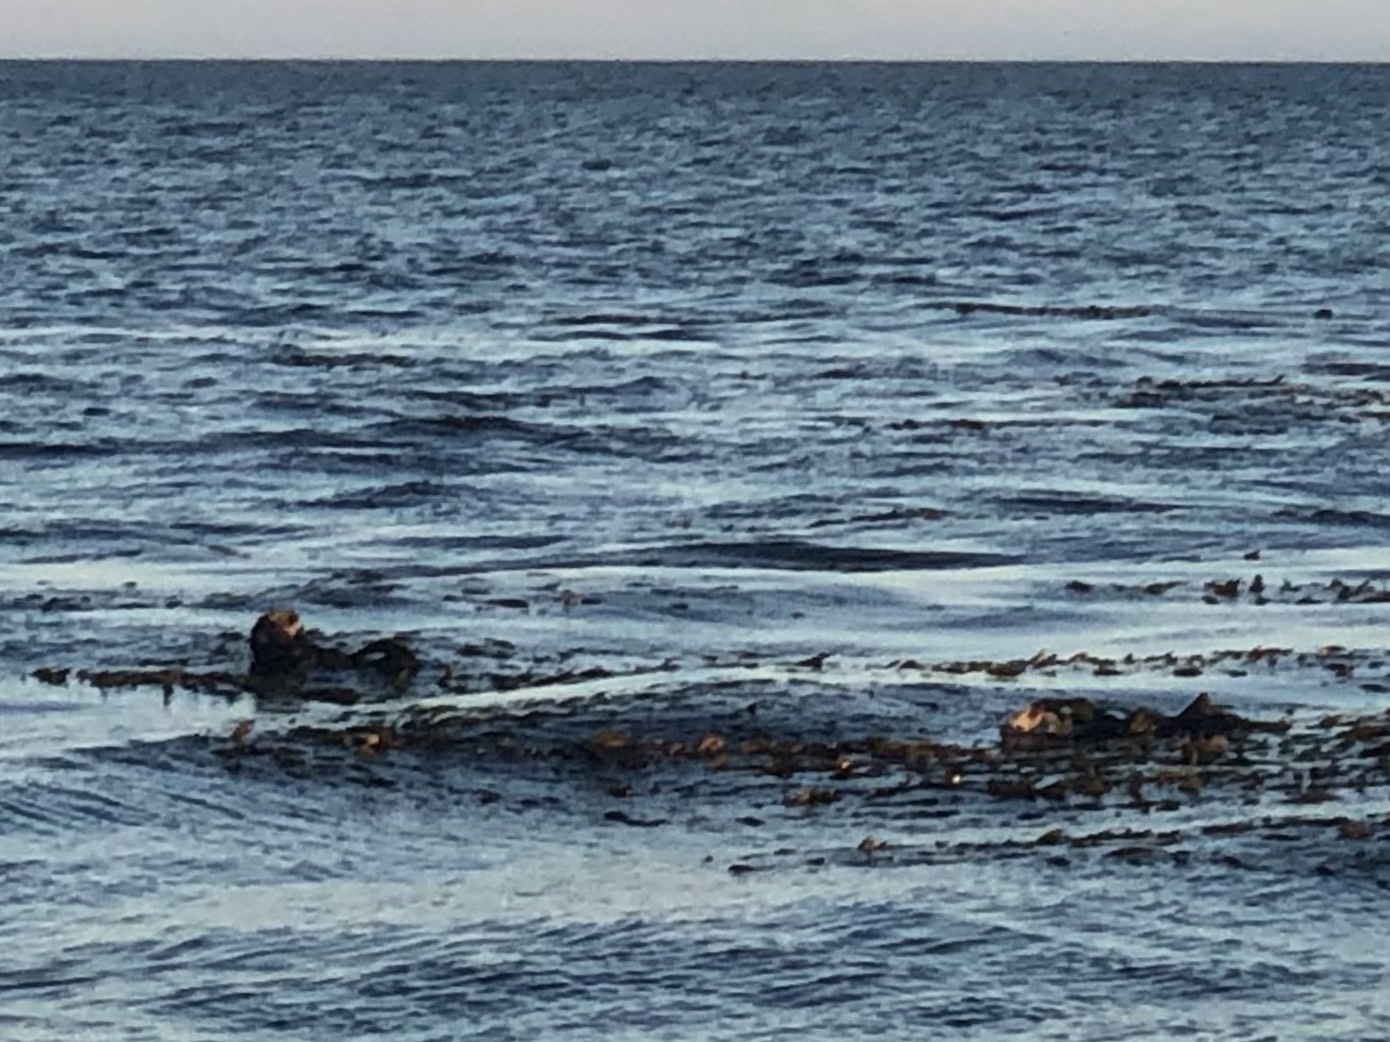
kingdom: Animalia
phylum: Chordata
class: Mammalia
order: Carnivora
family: Mustelidae
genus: Enhydra
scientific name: Enhydra lutris
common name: Sea otter
